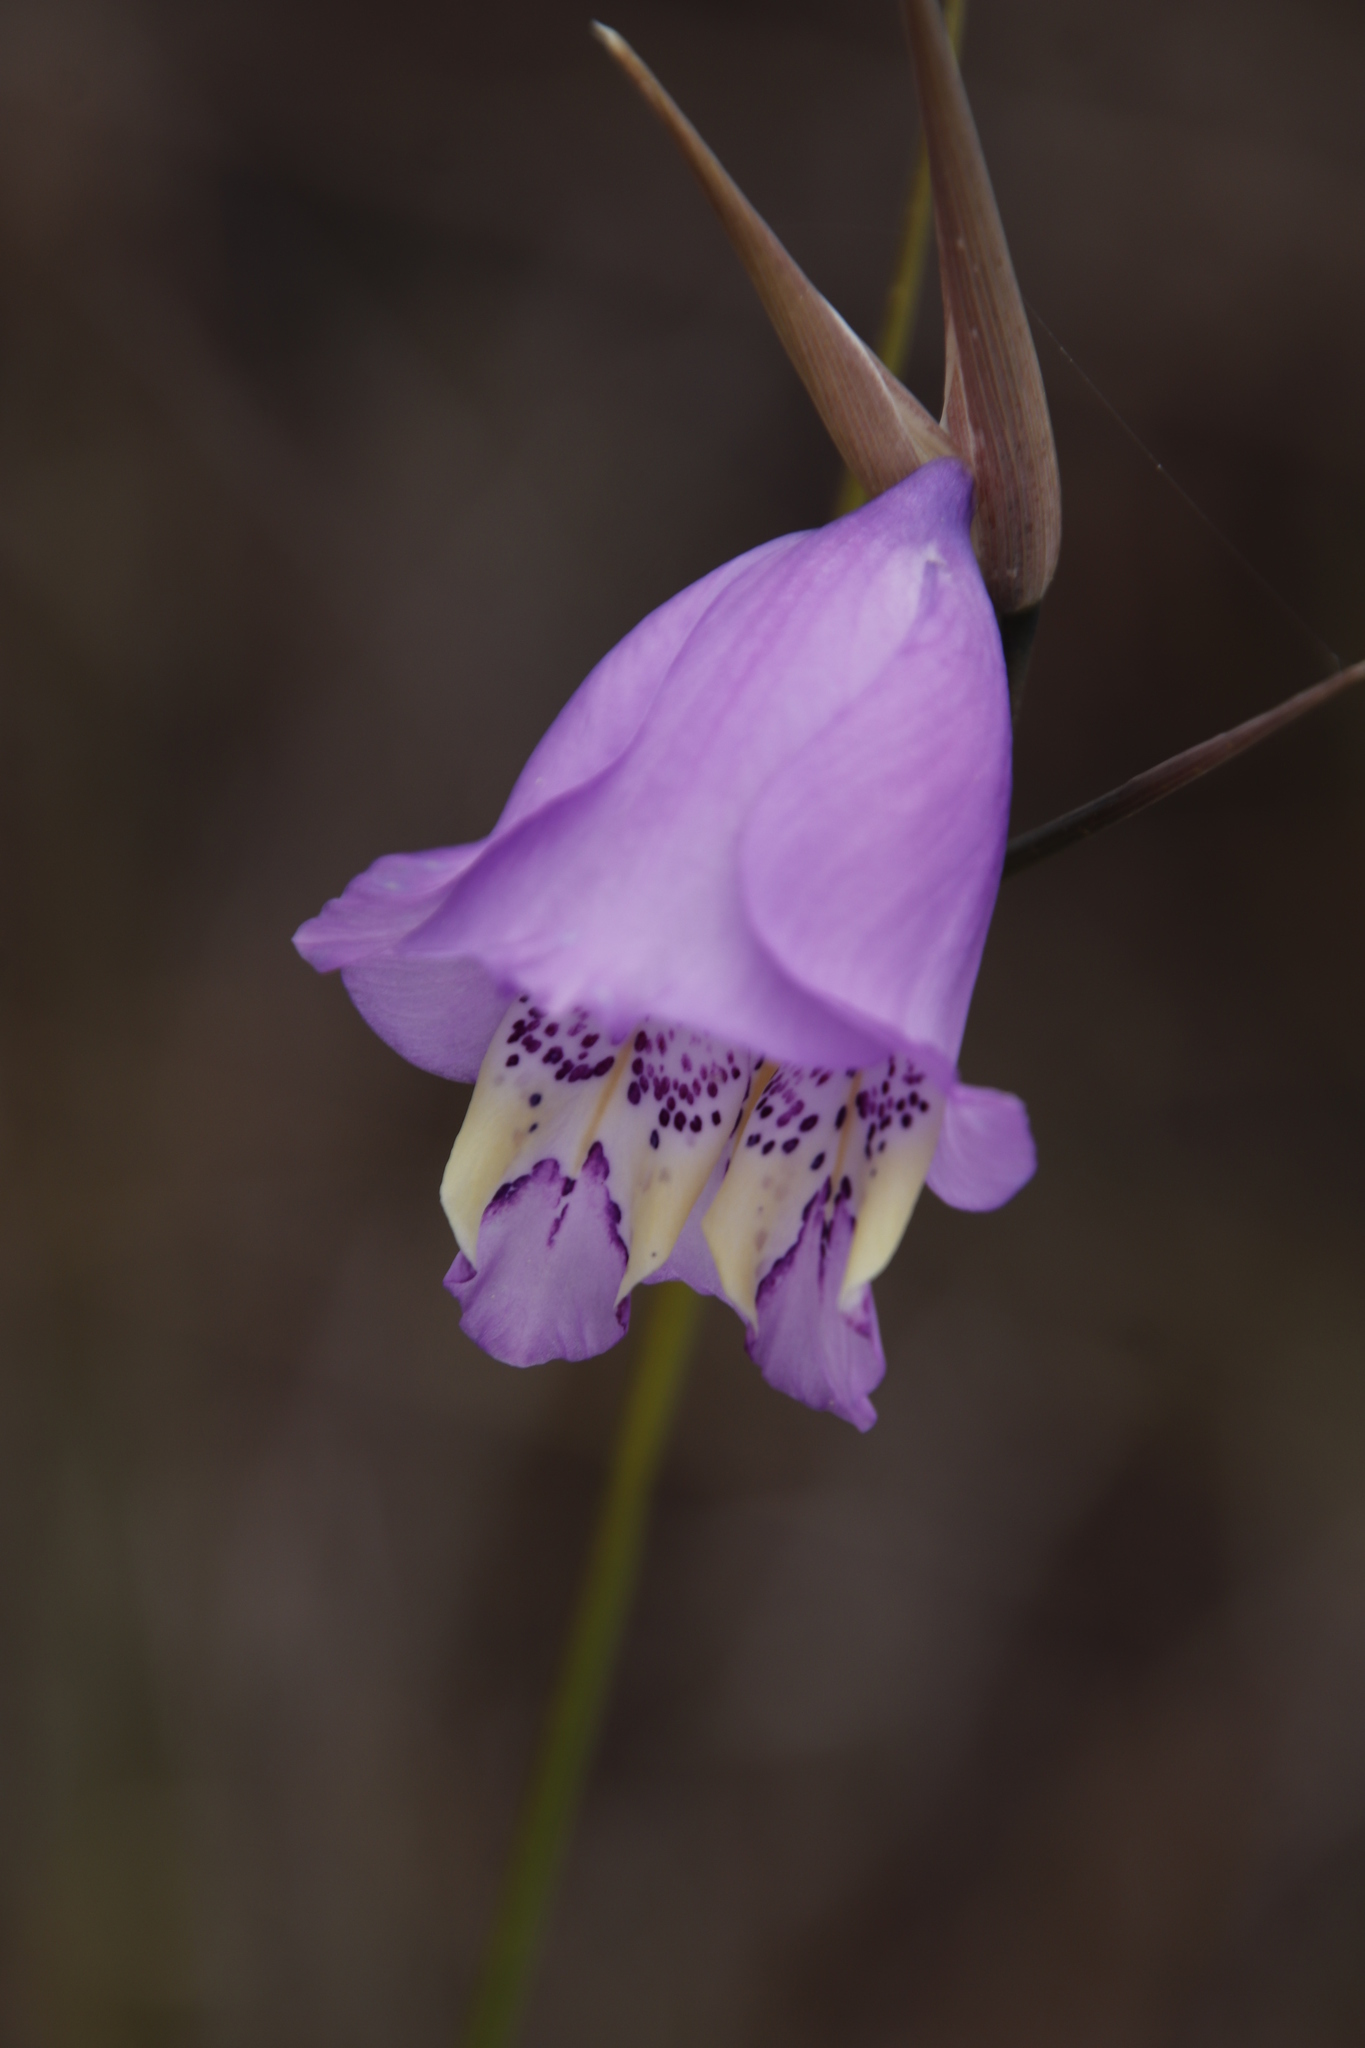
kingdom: Plantae
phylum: Tracheophyta
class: Liliopsida
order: Asparagales
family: Iridaceae
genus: Gladiolus
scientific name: Gladiolus bullatus
